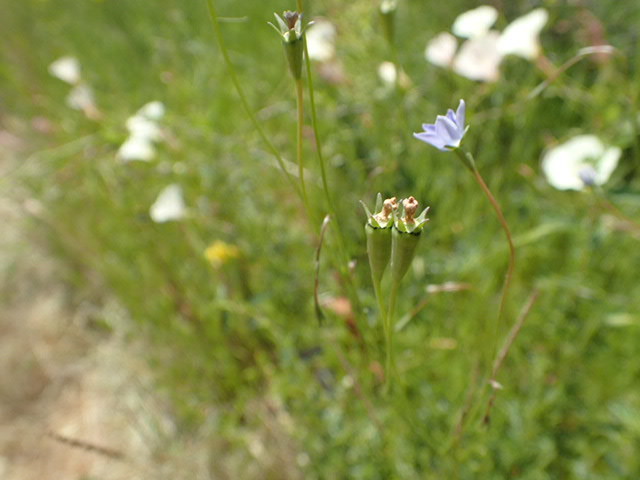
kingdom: Plantae
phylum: Tracheophyta
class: Magnoliopsida
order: Asterales
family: Campanulaceae
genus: Wahlenbergia
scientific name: Wahlenbergia marginata
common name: Southern rockbell
